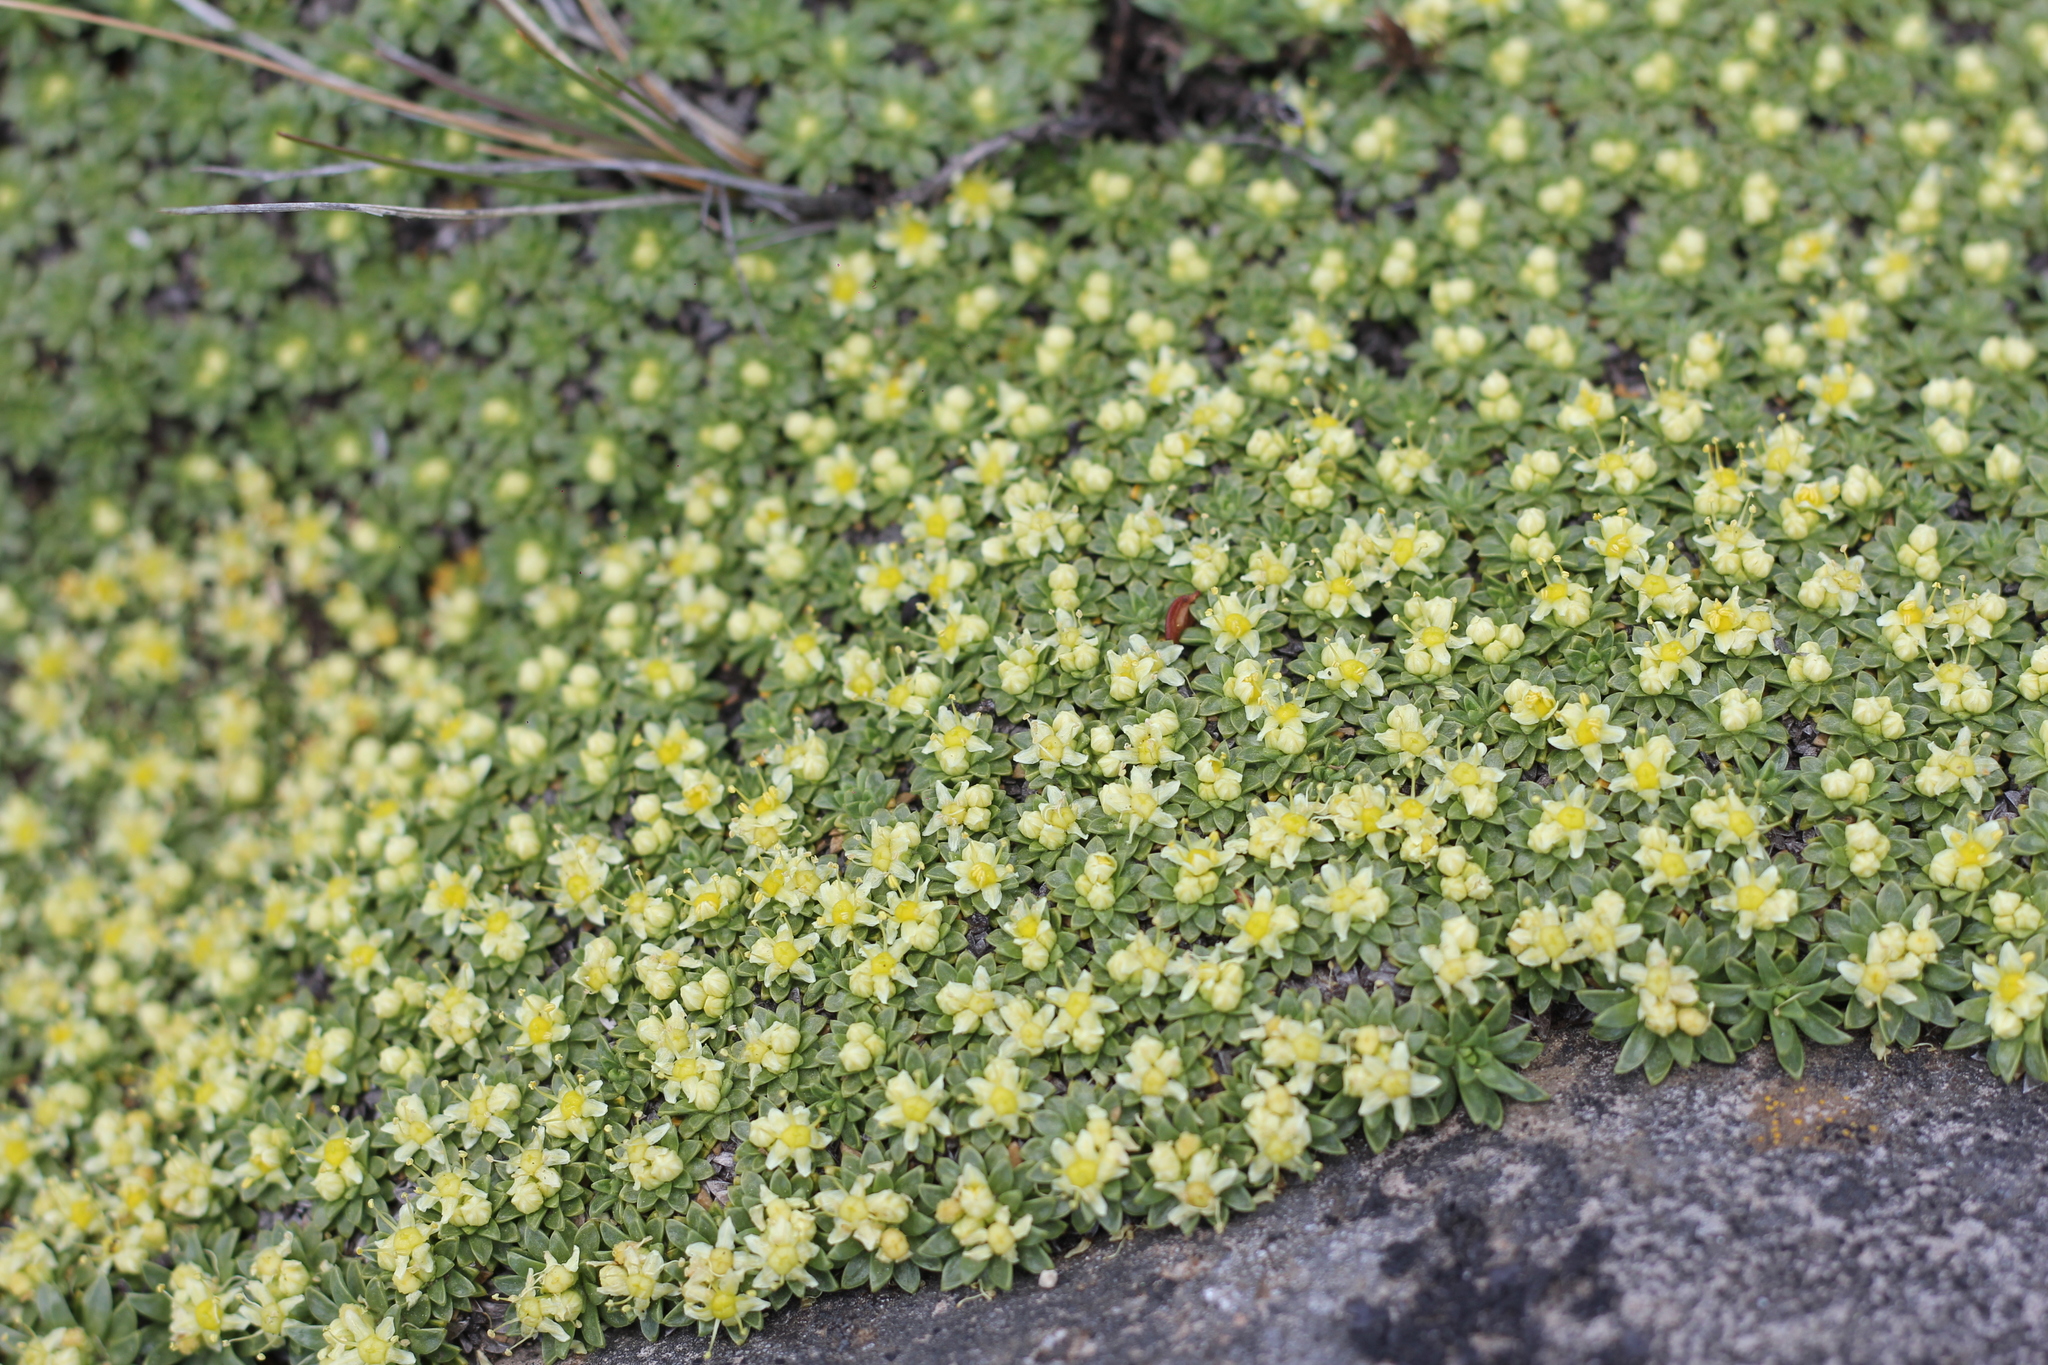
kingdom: Plantae
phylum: Tracheophyta
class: Magnoliopsida
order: Apiales
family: Apiaceae
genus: Azorella
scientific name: Azorella monantha
